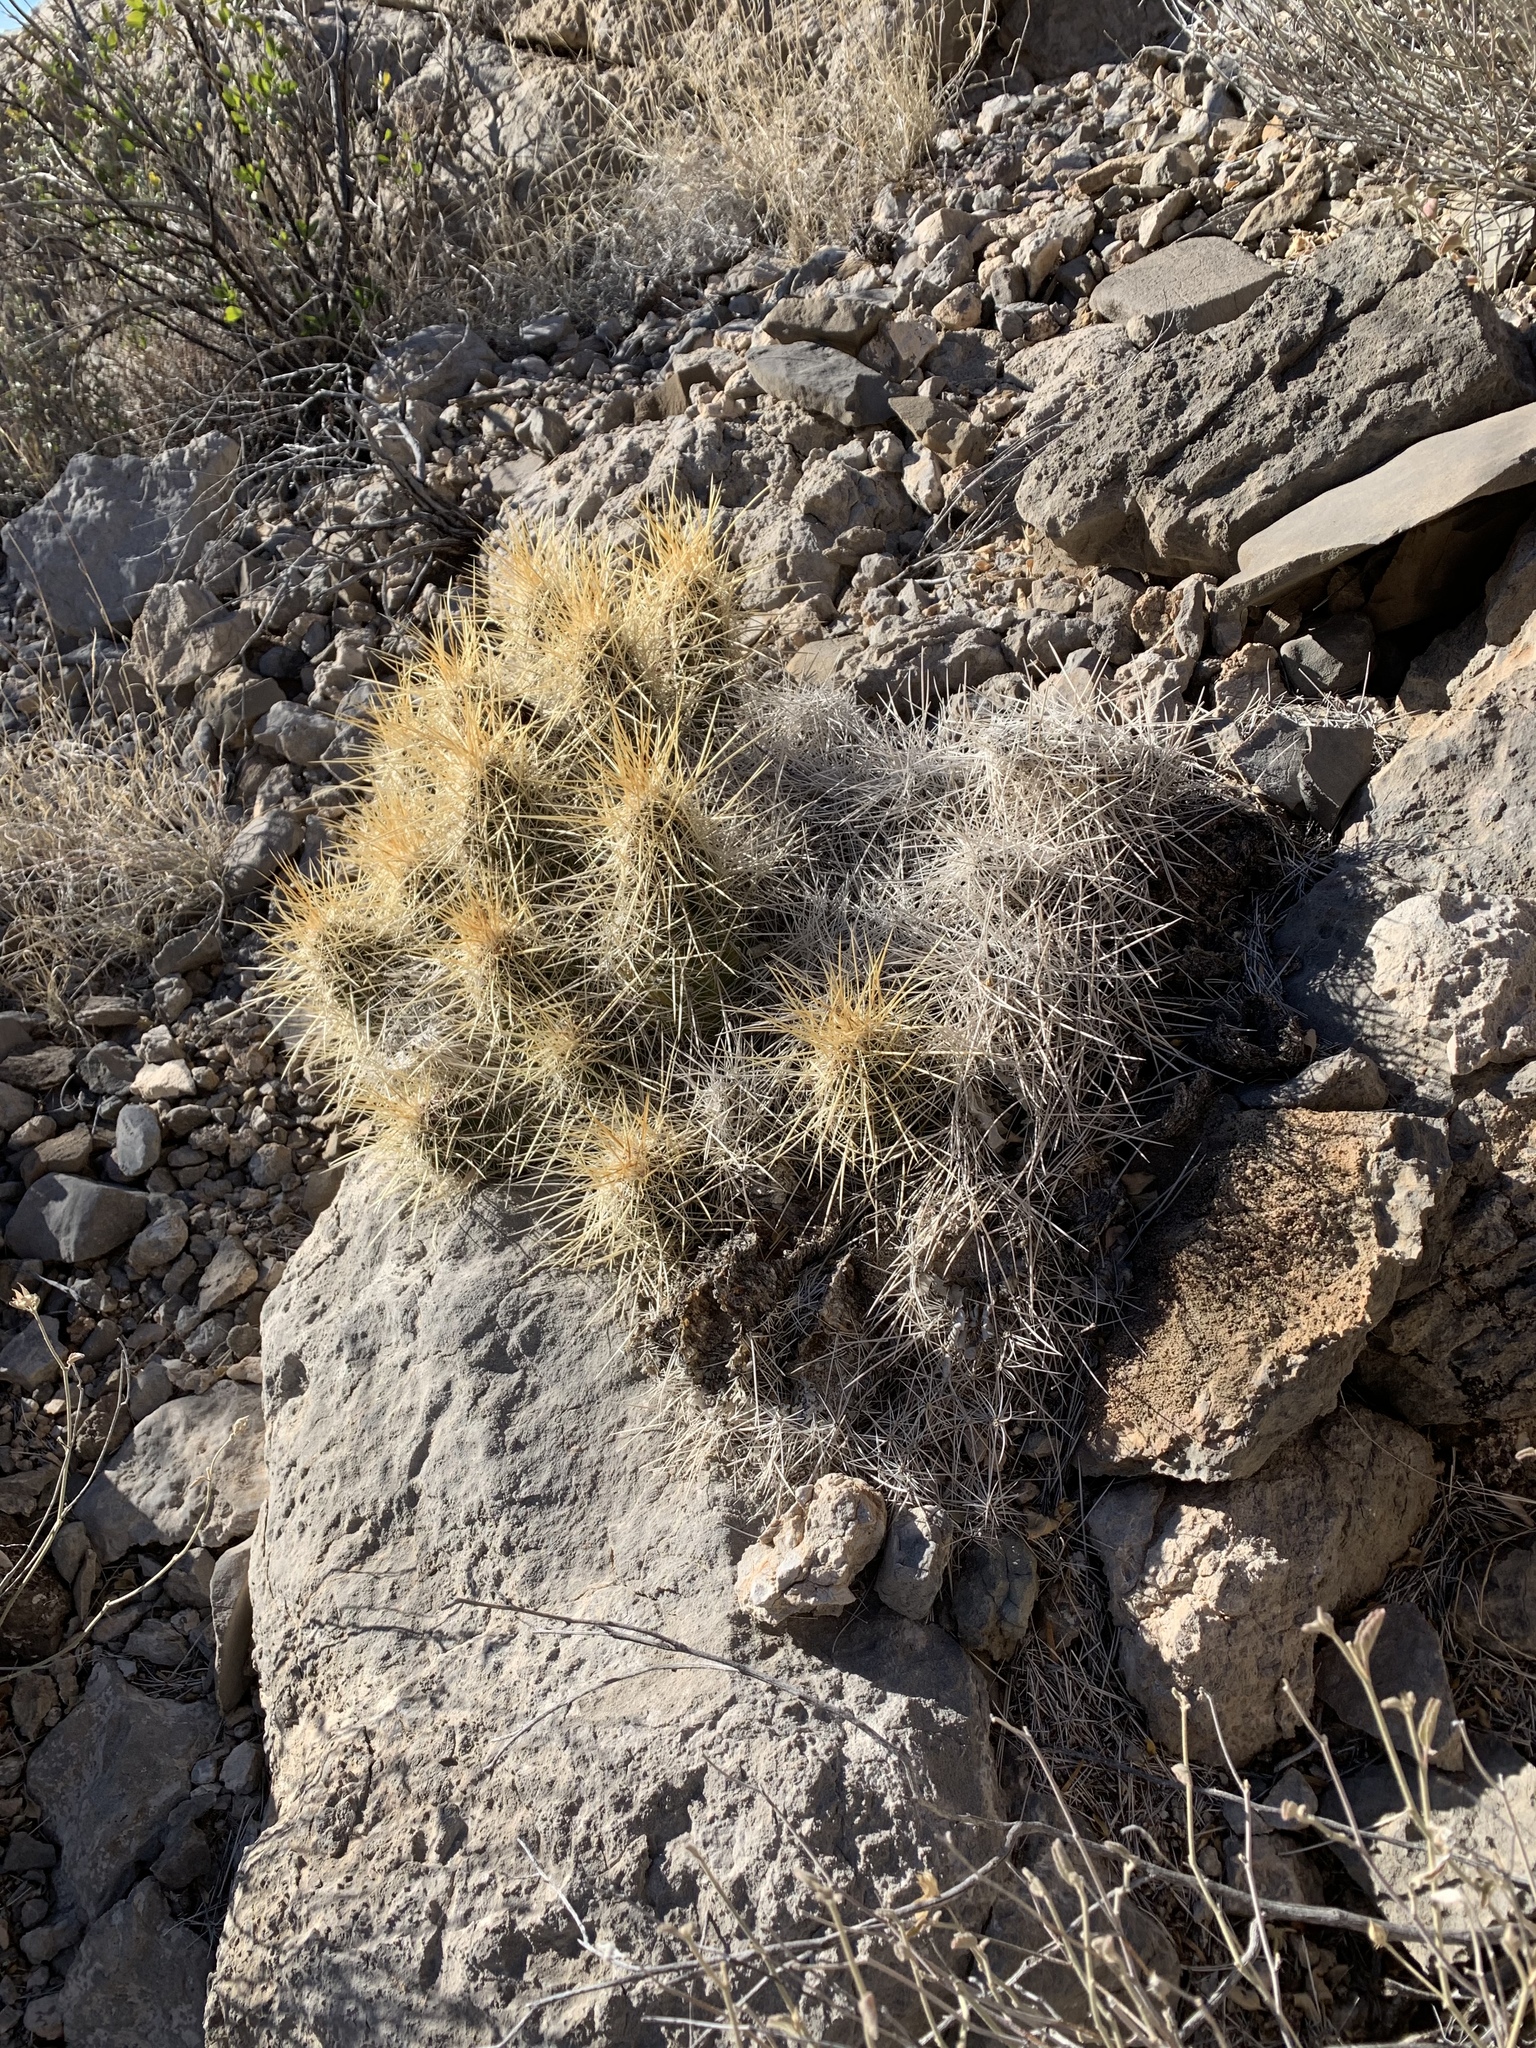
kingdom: Plantae
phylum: Tracheophyta
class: Magnoliopsida
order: Caryophyllales
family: Cactaceae
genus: Echinocereus
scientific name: Echinocereus stramineus
